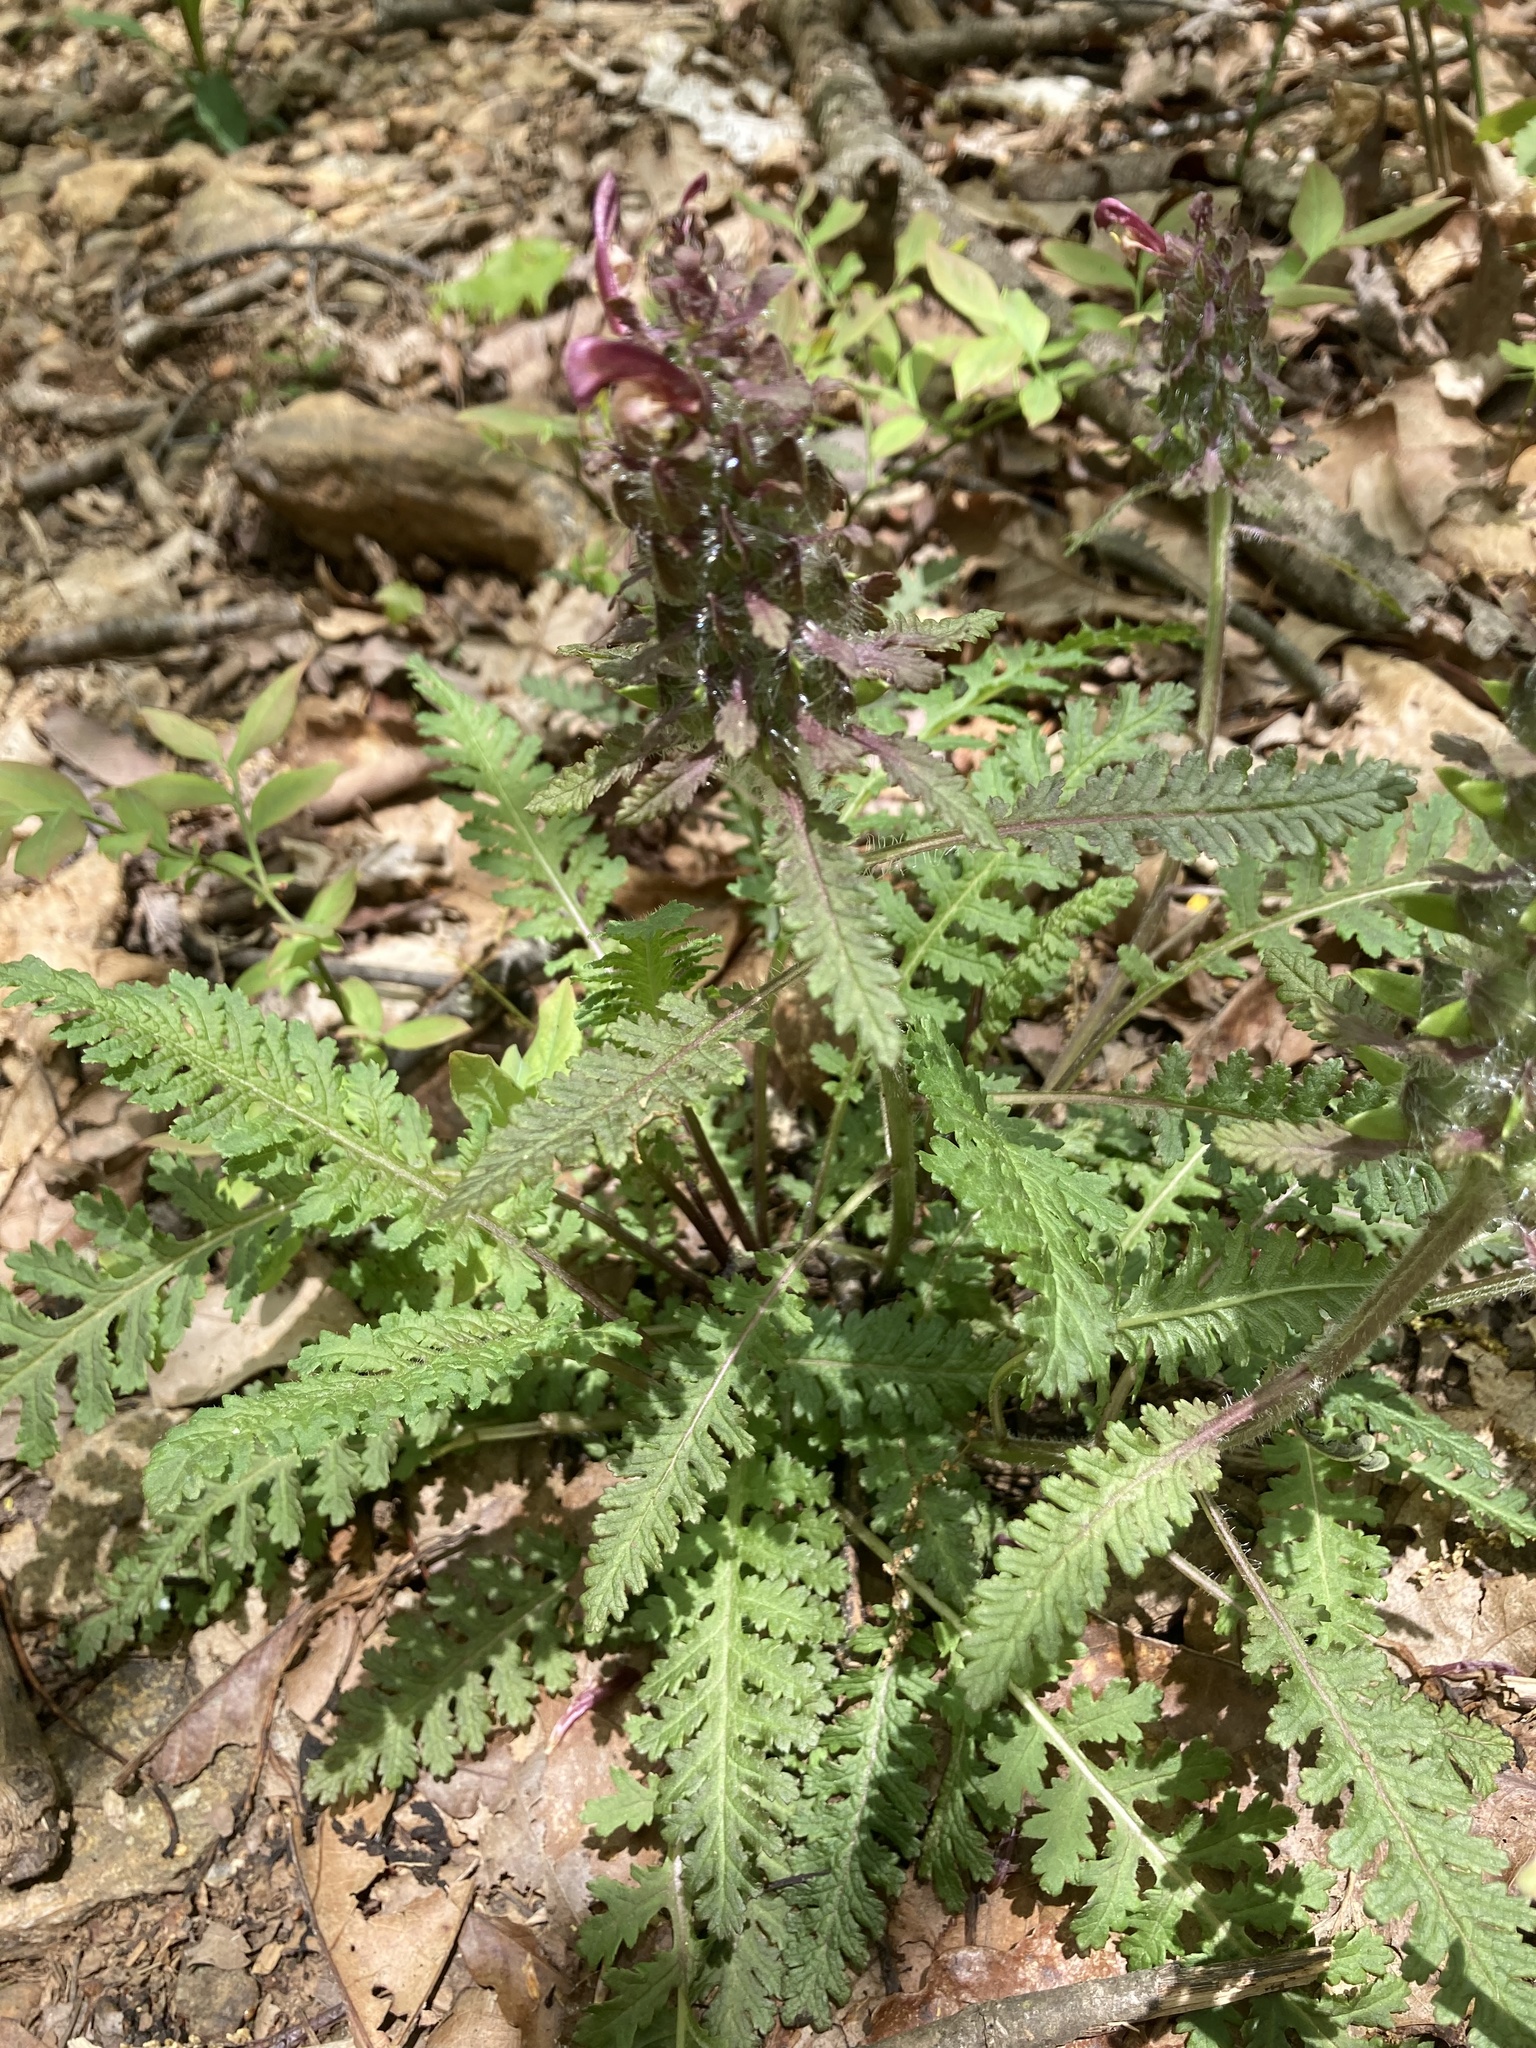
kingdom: Plantae
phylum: Tracheophyta
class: Magnoliopsida
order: Lamiales
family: Orobanchaceae
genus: Pedicularis
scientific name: Pedicularis canadensis
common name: Early lousewort
